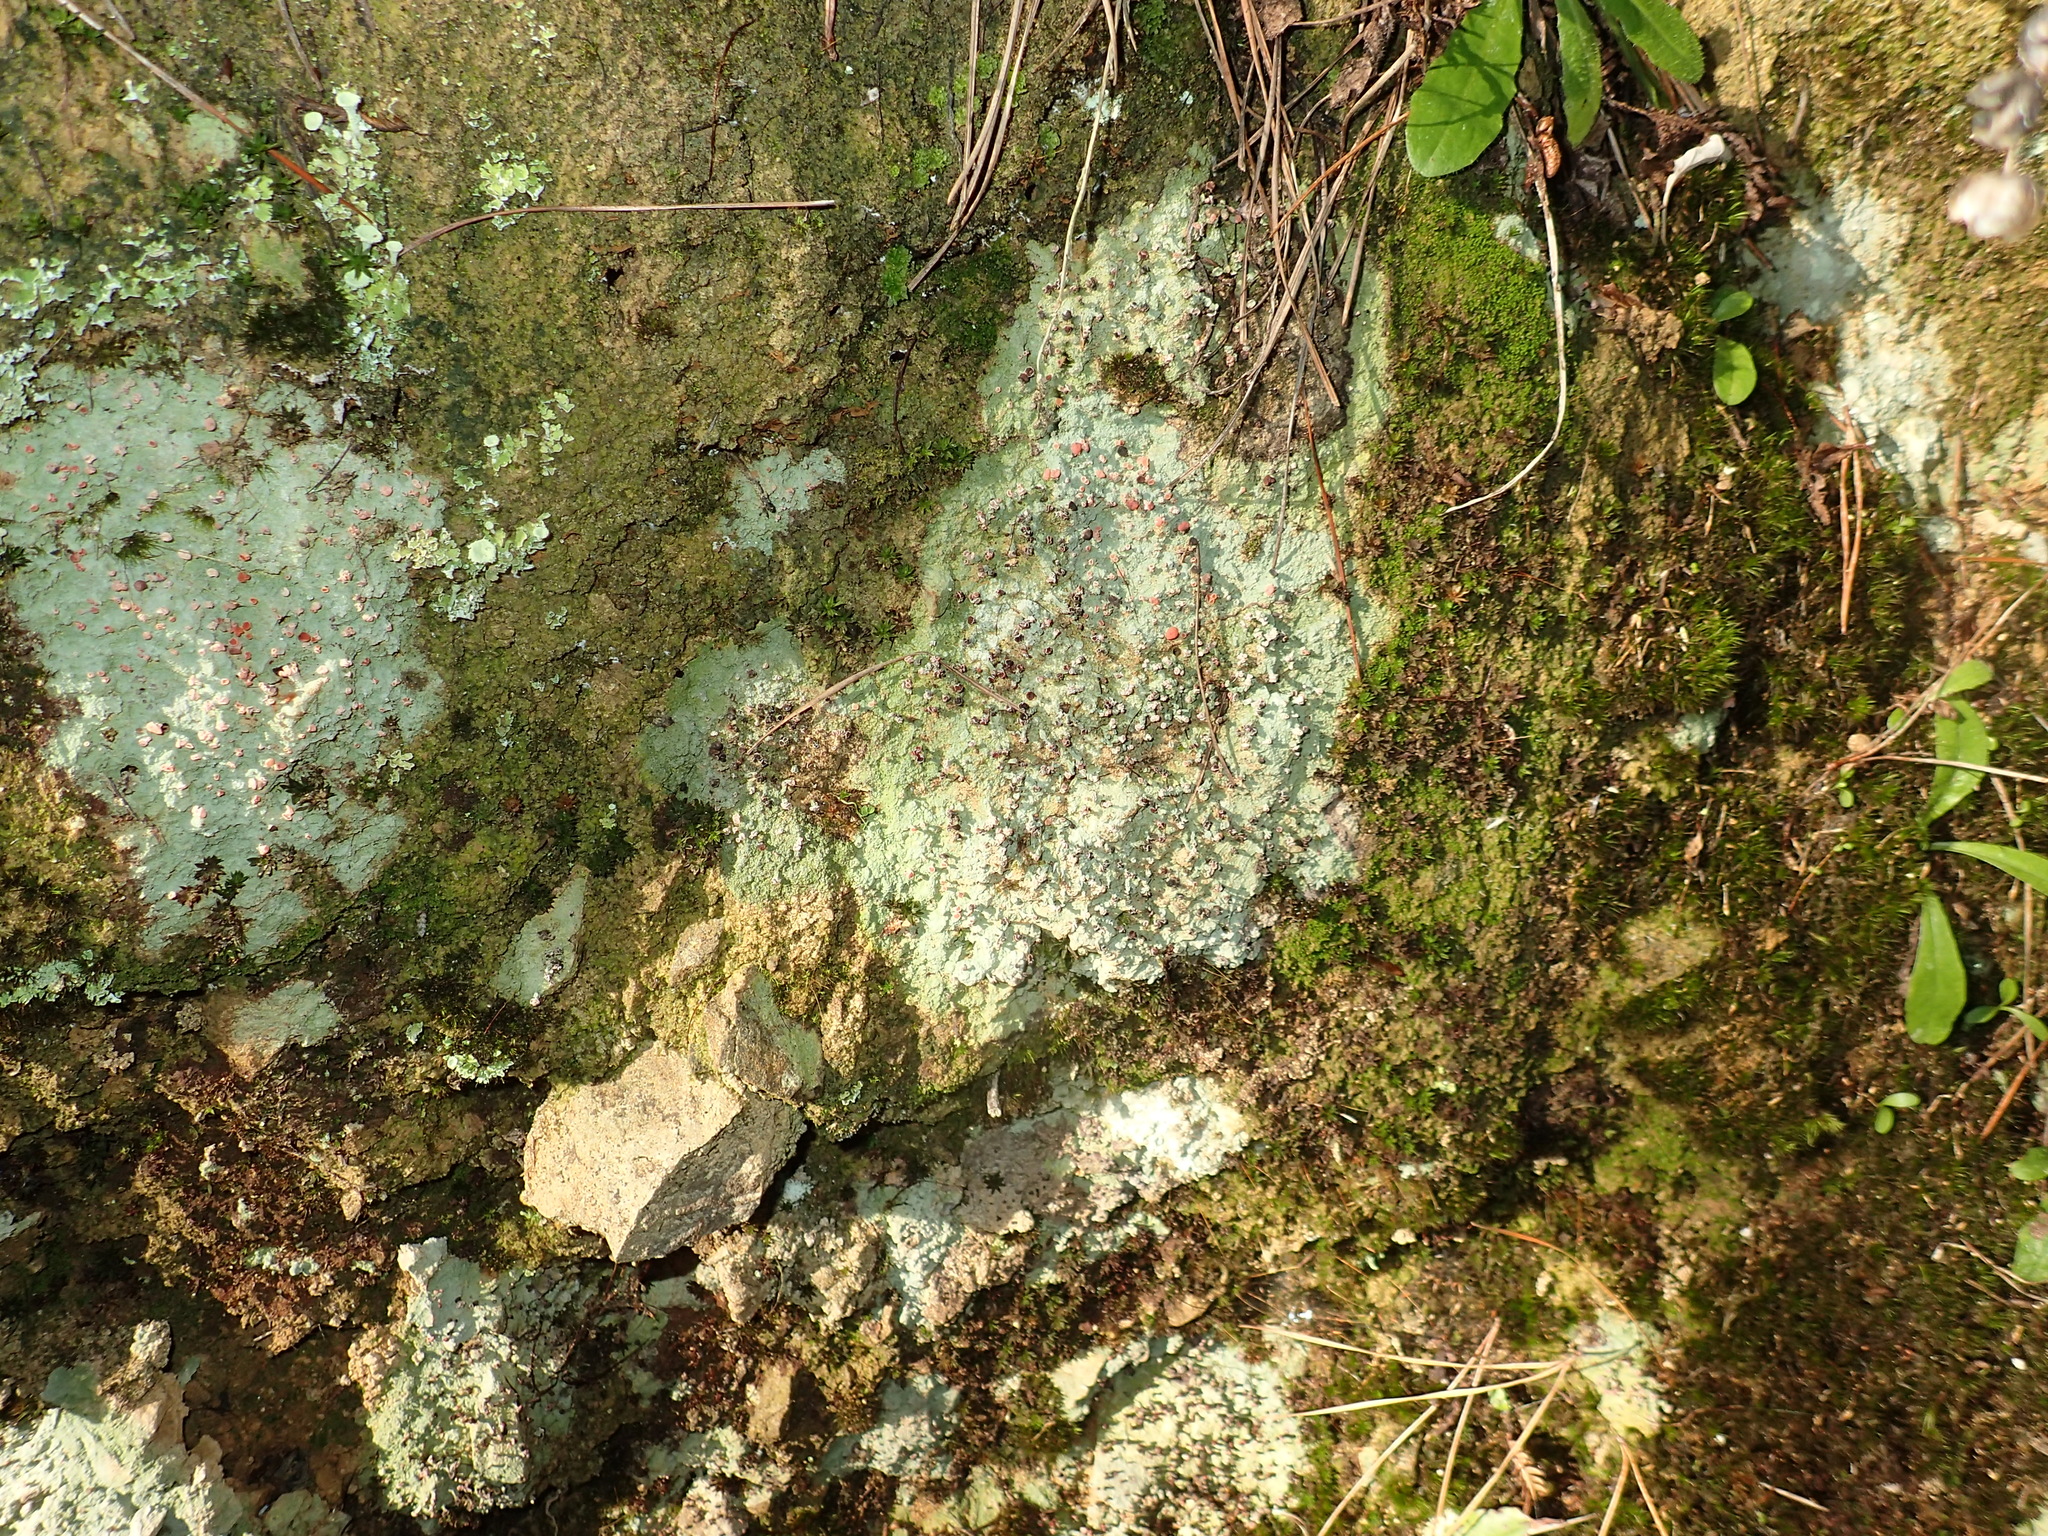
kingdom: Fungi
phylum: Ascomycota
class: Lecanoromycetes
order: Baeomycetales
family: Baeomycetaceae
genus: Baeomyces
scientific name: Baeomyces heteromorphus
